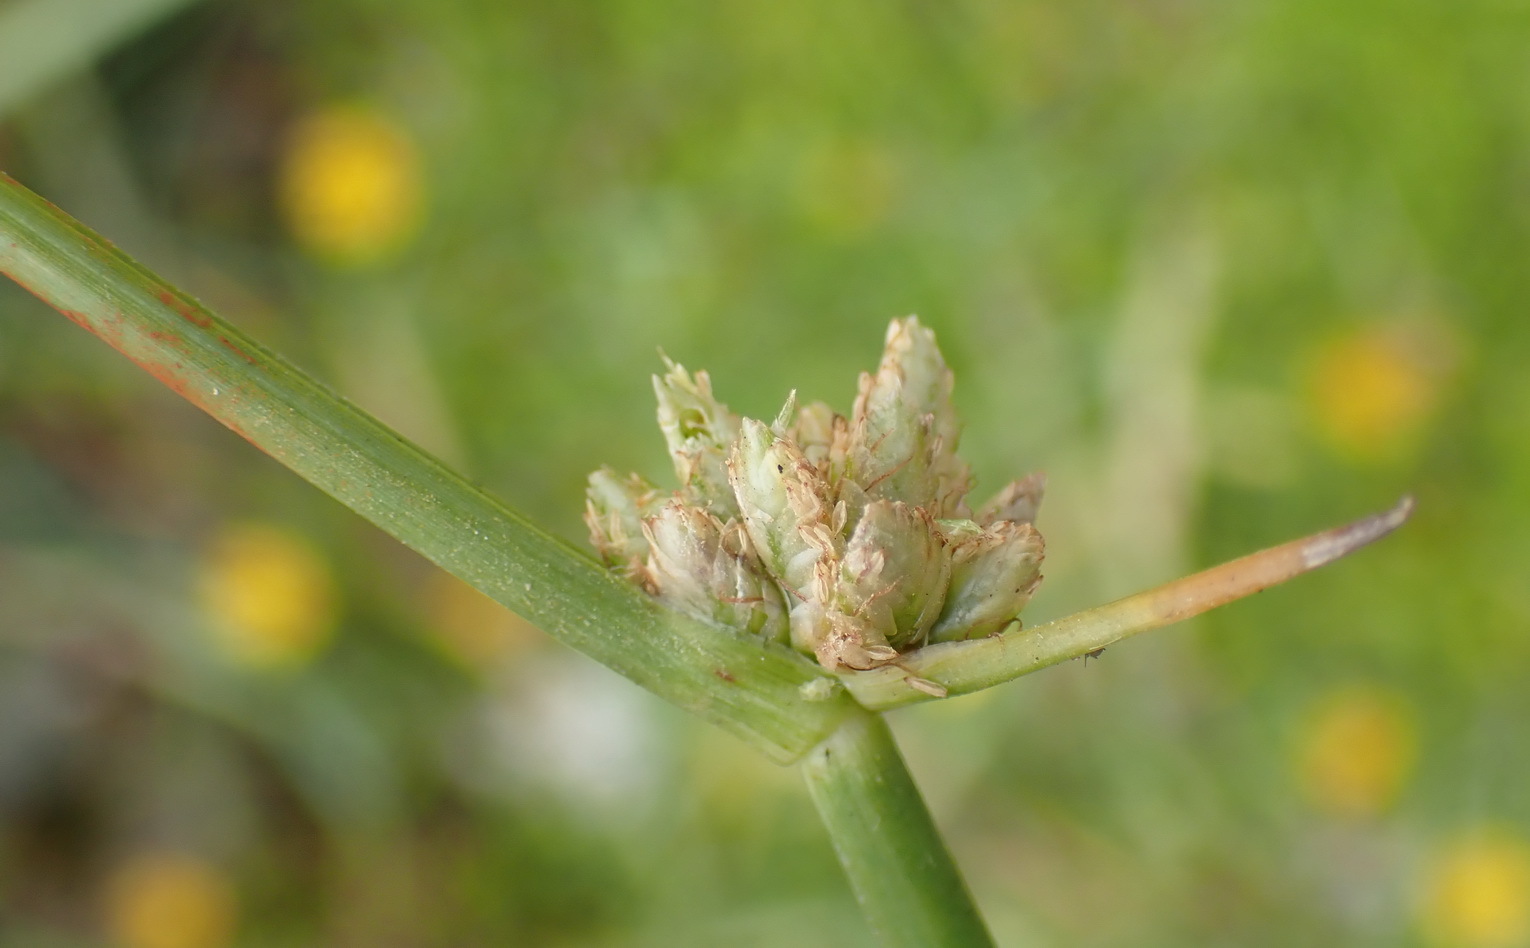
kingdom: Plantae
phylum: Tracheophyta
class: Liliopsida
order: Poales
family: Cyperaceae
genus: Cyperus
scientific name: Cyperus laevigatus
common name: Smooth flat sedge
